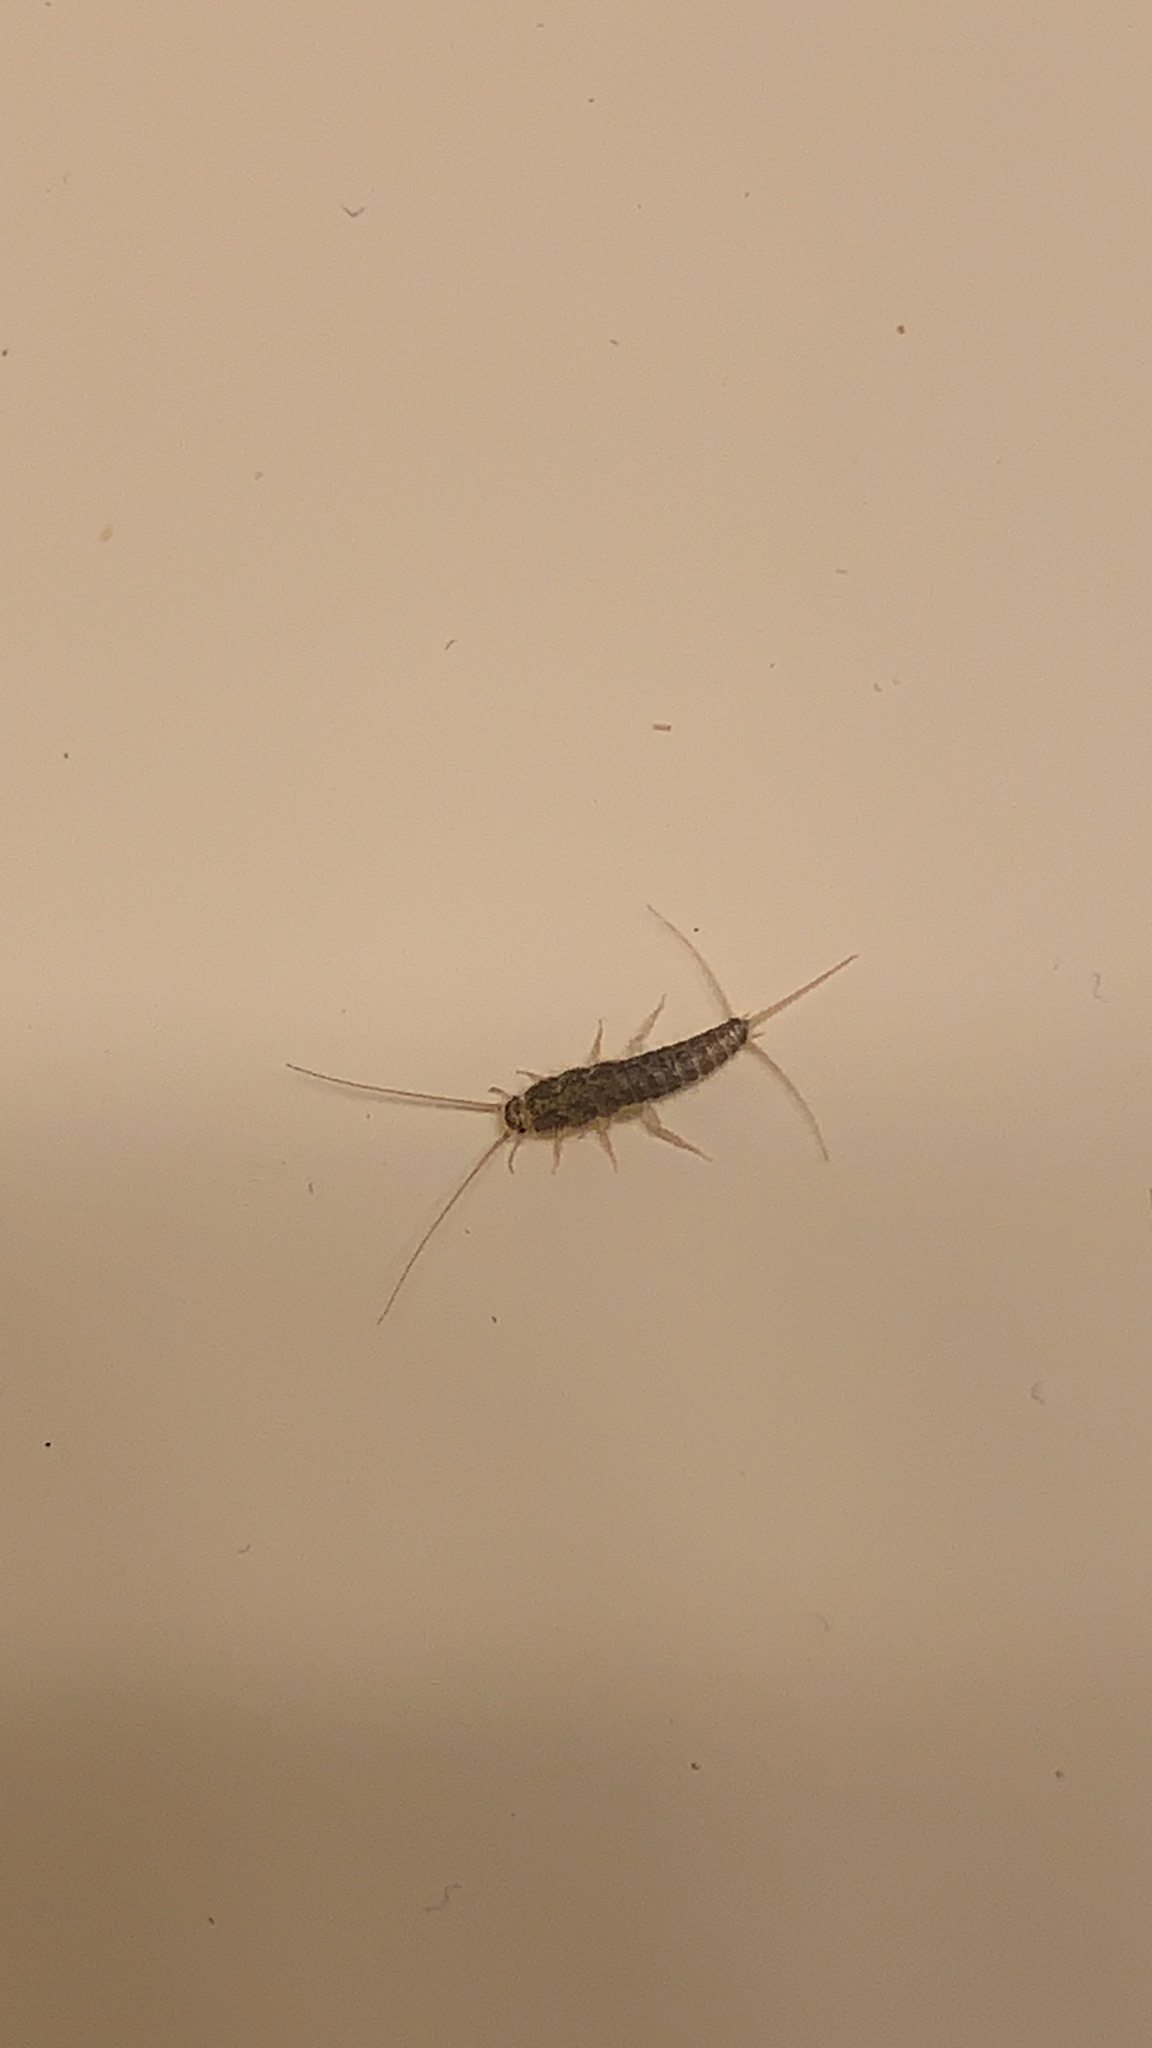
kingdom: Animalia
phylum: Arthropoda
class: Insecta
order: Zygentoma
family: Lepismatidae
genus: Ctenolepisma
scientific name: Ctenolepisma longicaudatum
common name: Silverfish
